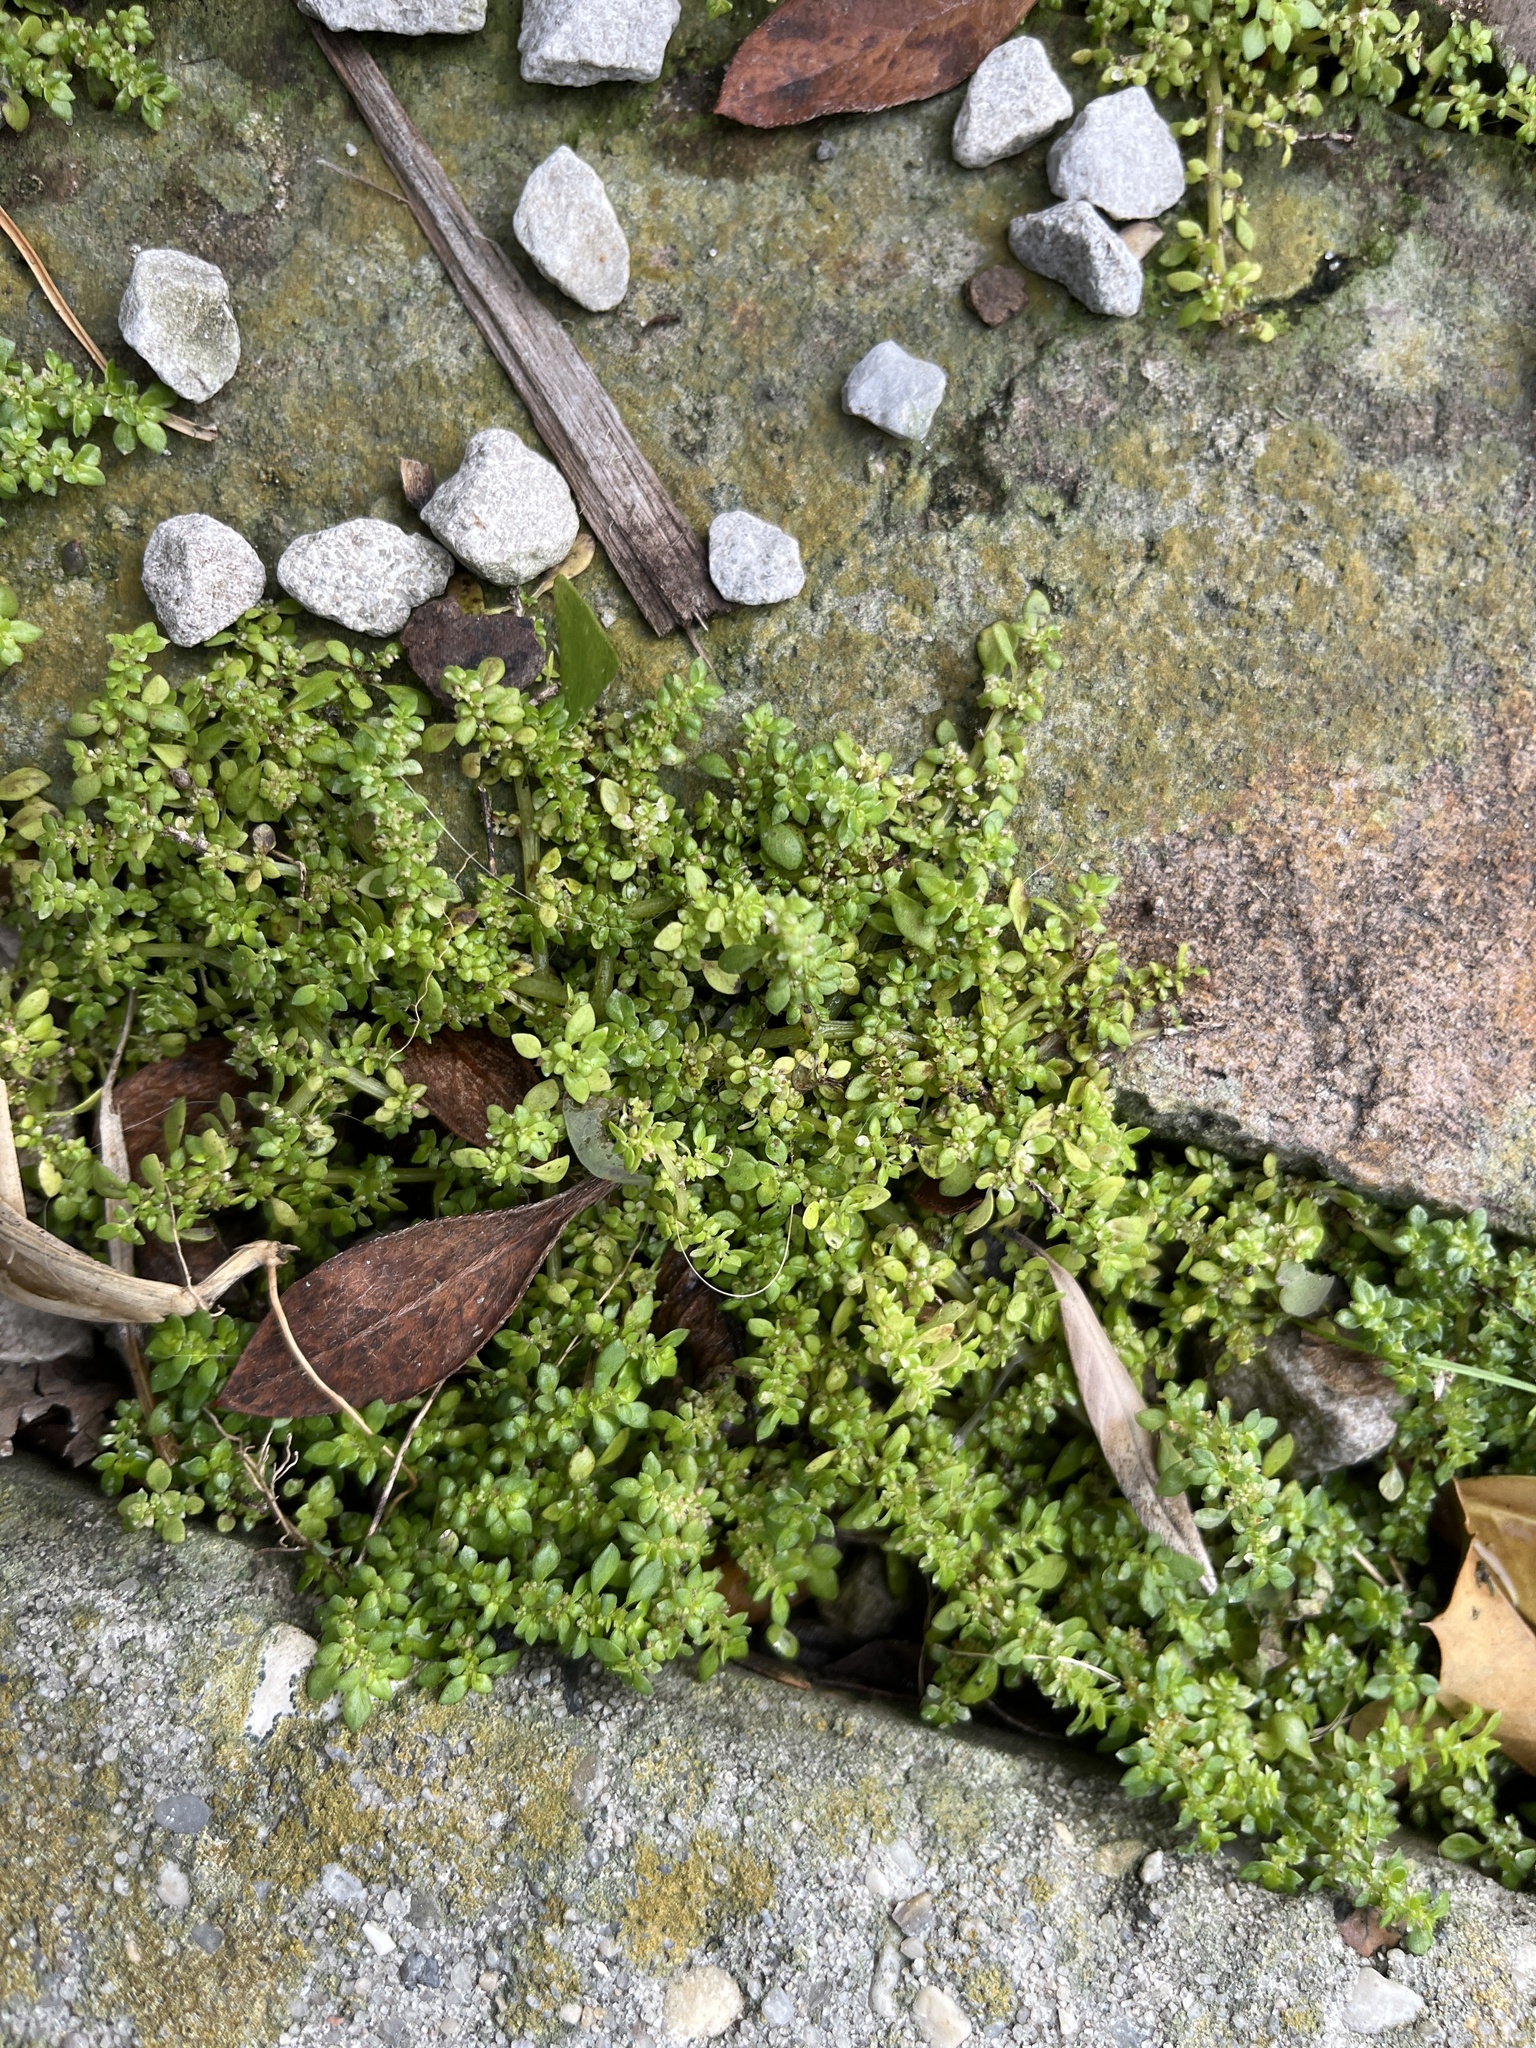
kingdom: Plantae
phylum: Tracheophyta
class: Magnoliopsida
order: Rosales
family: Urticaceae
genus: Pilea
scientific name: Pilea microphylla
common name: Artillery-plant
